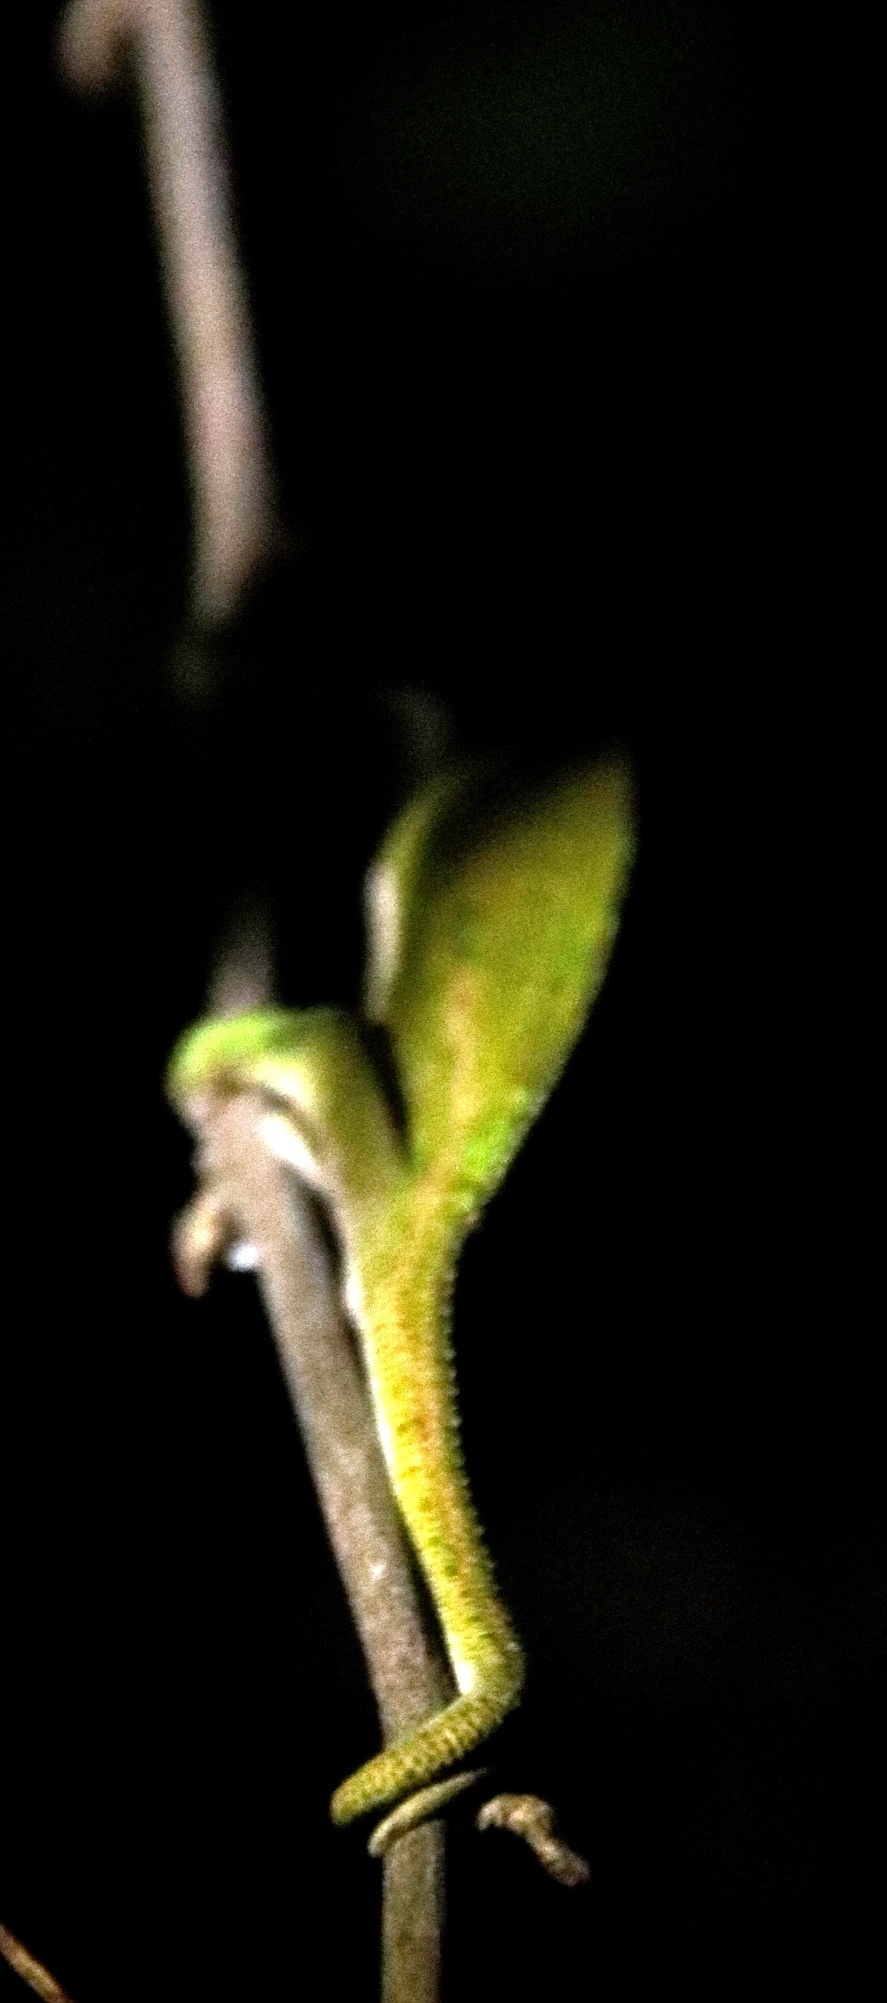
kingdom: Animalia
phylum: Chordata
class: Squamata
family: Chamaeleonidae
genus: Bradypodion
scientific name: Bradypodion pumilum
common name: Cape dwarf chameleon
